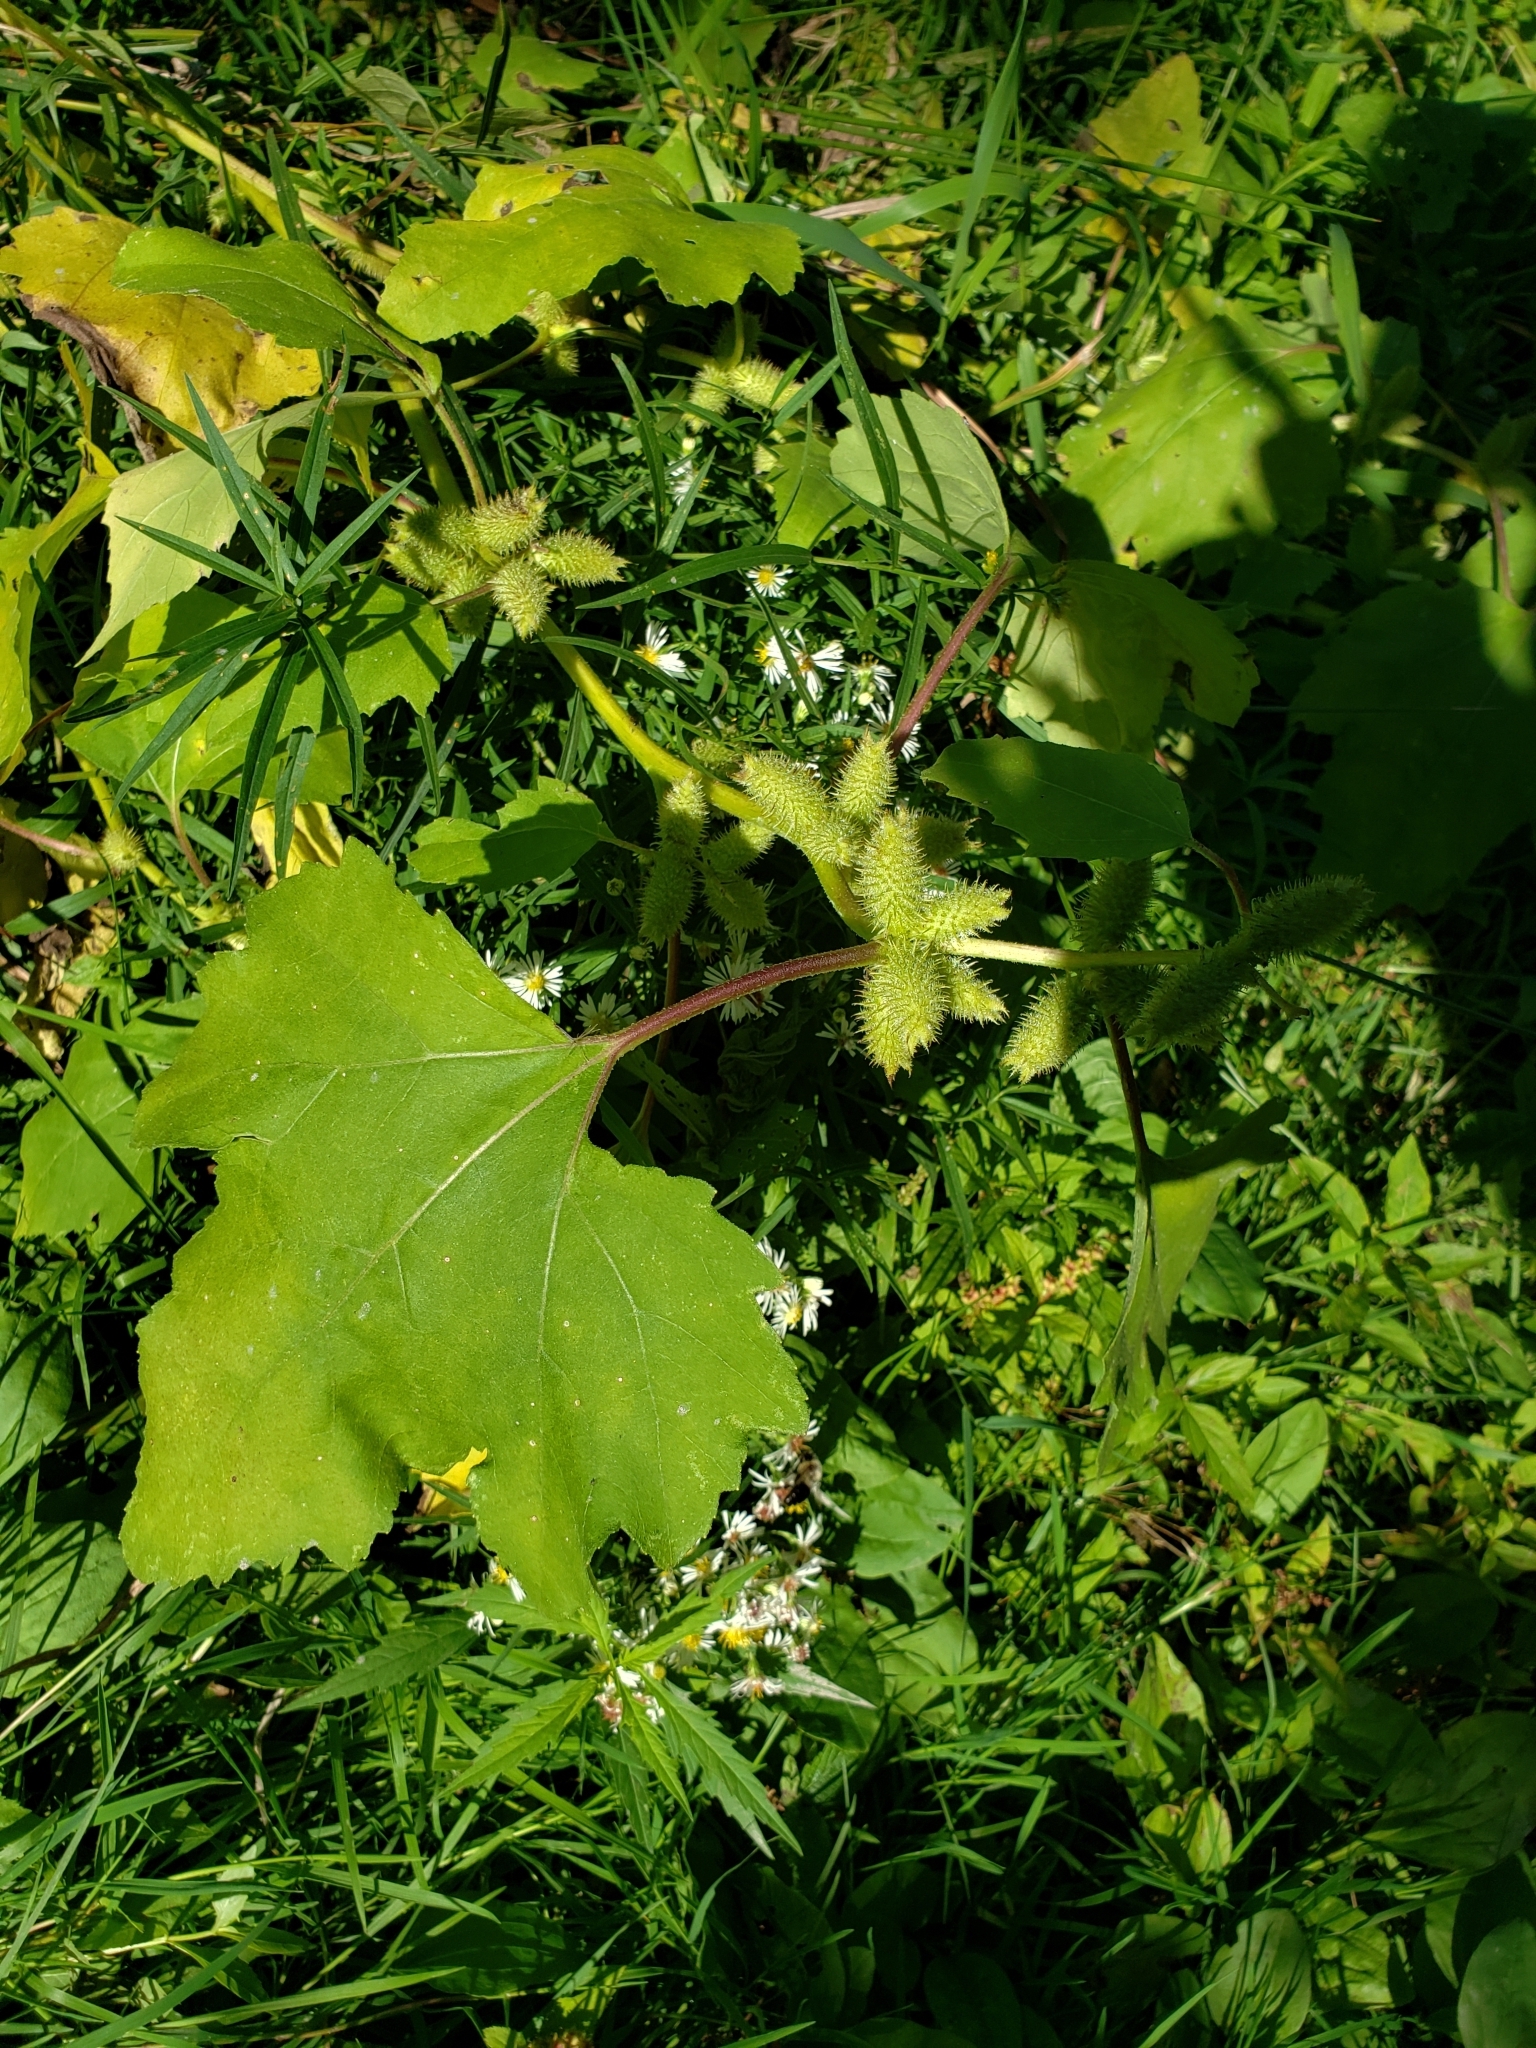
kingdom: Plantae
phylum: Tracheophyta
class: Magnoliopsida
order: Asterales
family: Asteraceae
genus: Xanthium
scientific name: Xanthium strumarium
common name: Rough cocklebur
